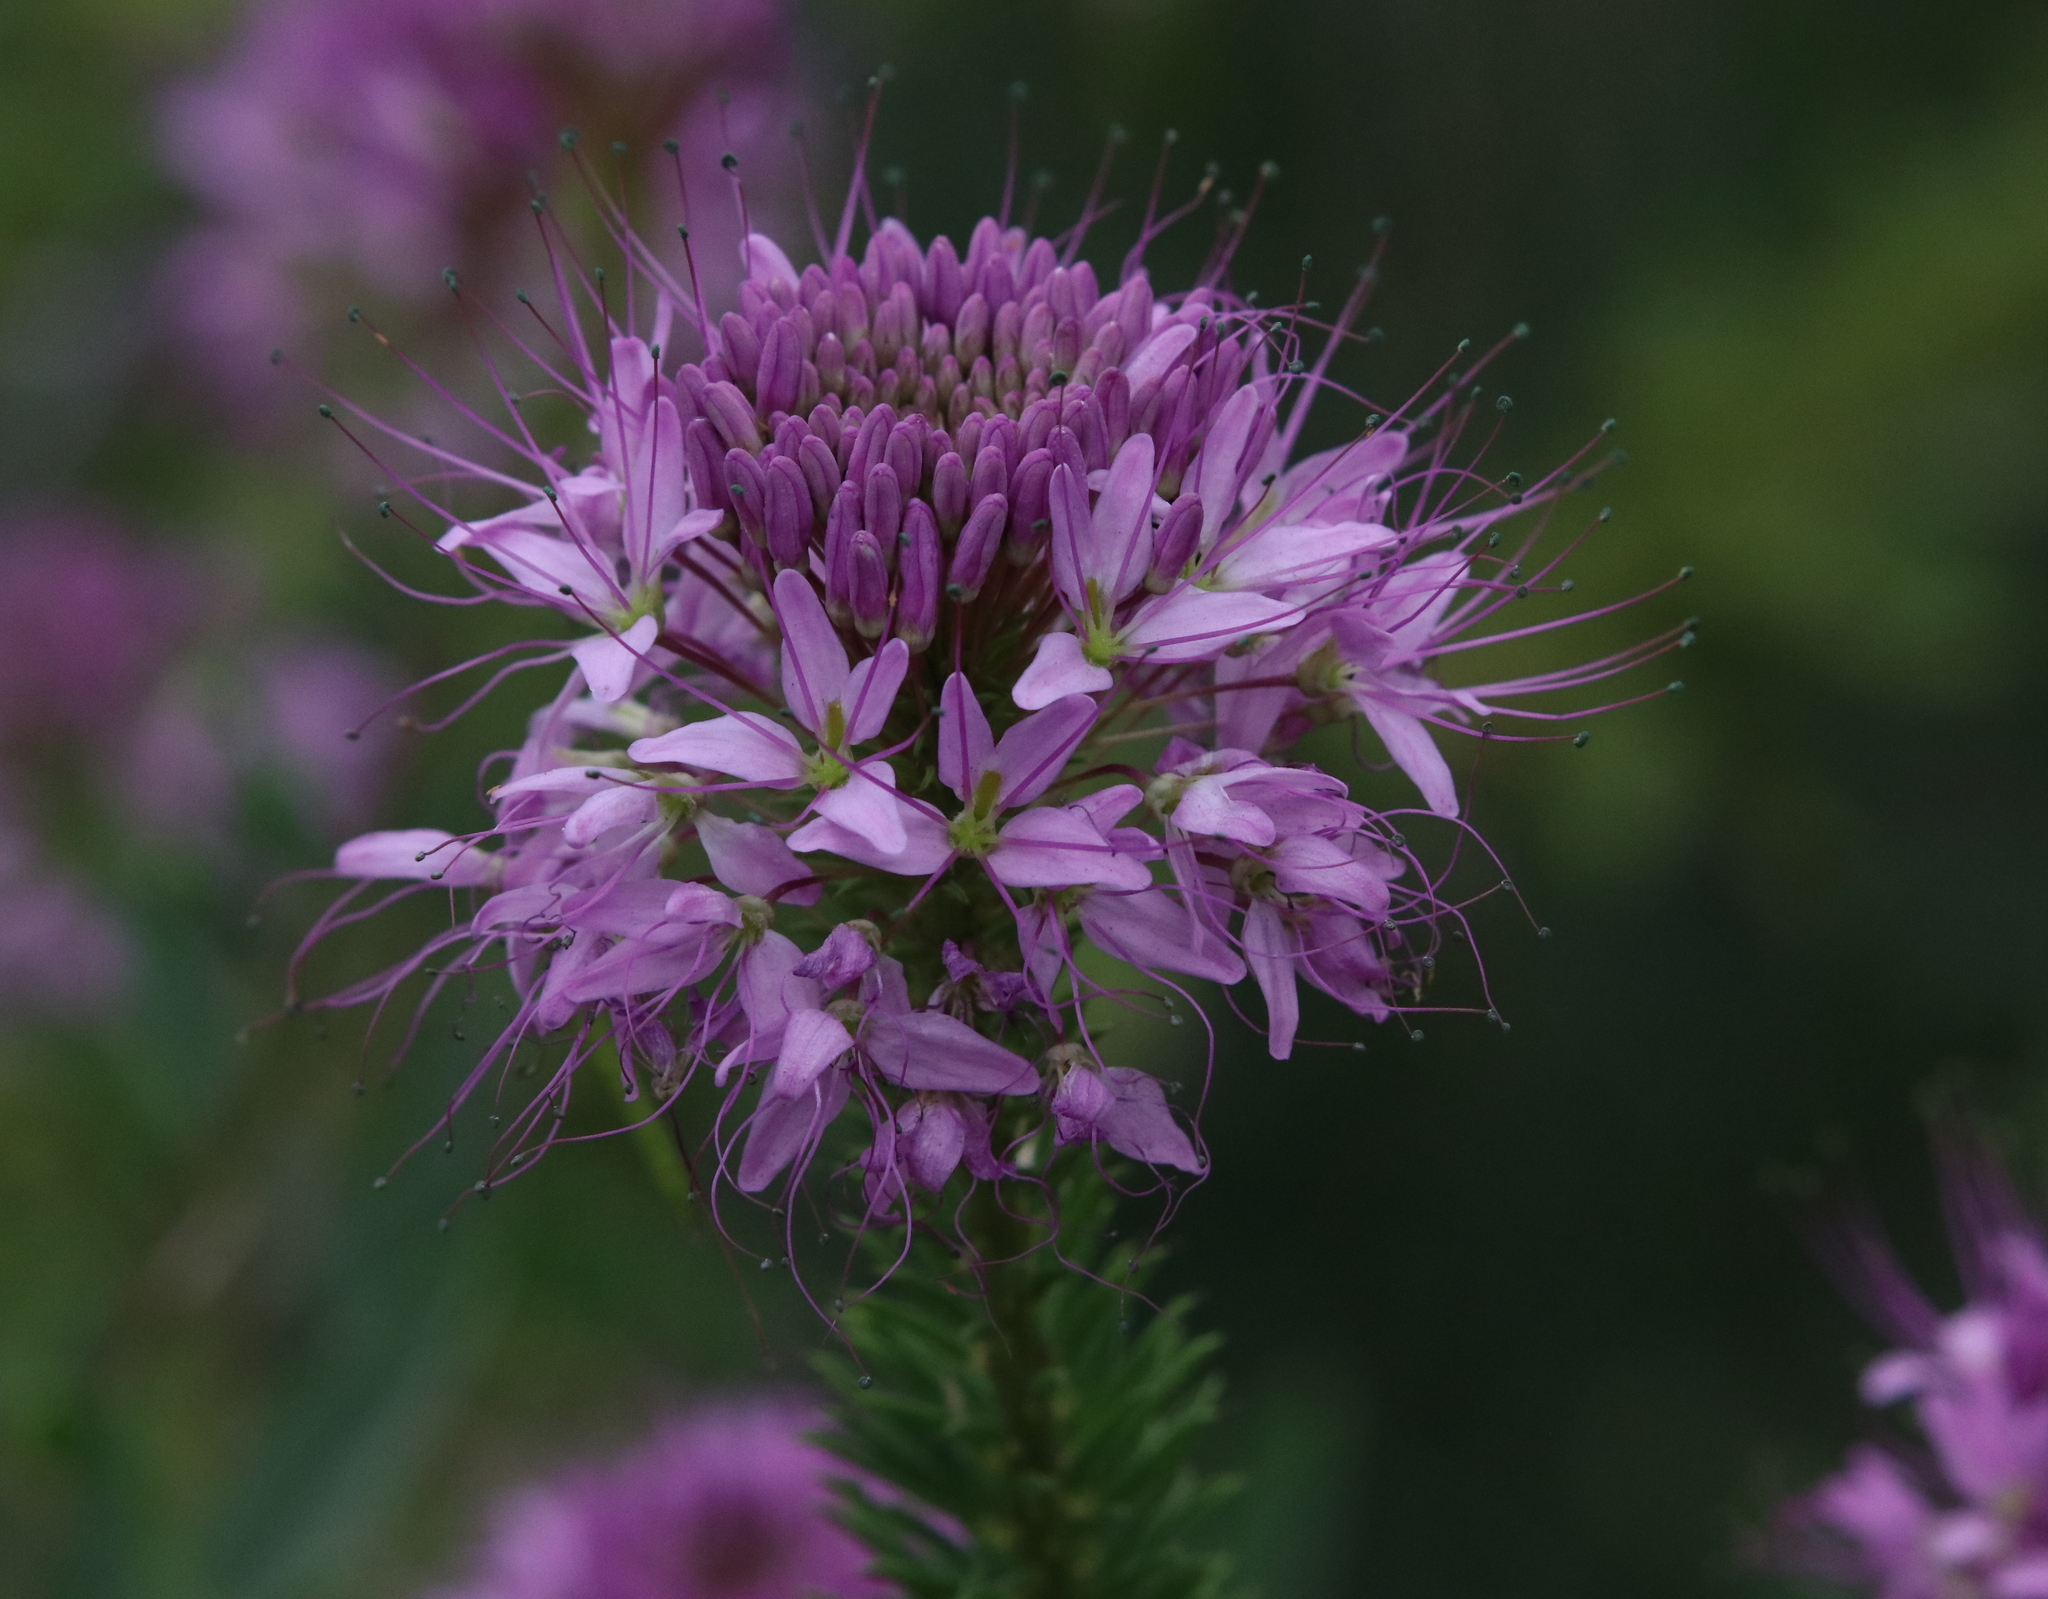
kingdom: Plantae
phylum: Tracheophyta
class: Magnoliopsida
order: Brassicales
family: Cleomaceae
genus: Cleomella
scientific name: Cleomella serrulata
